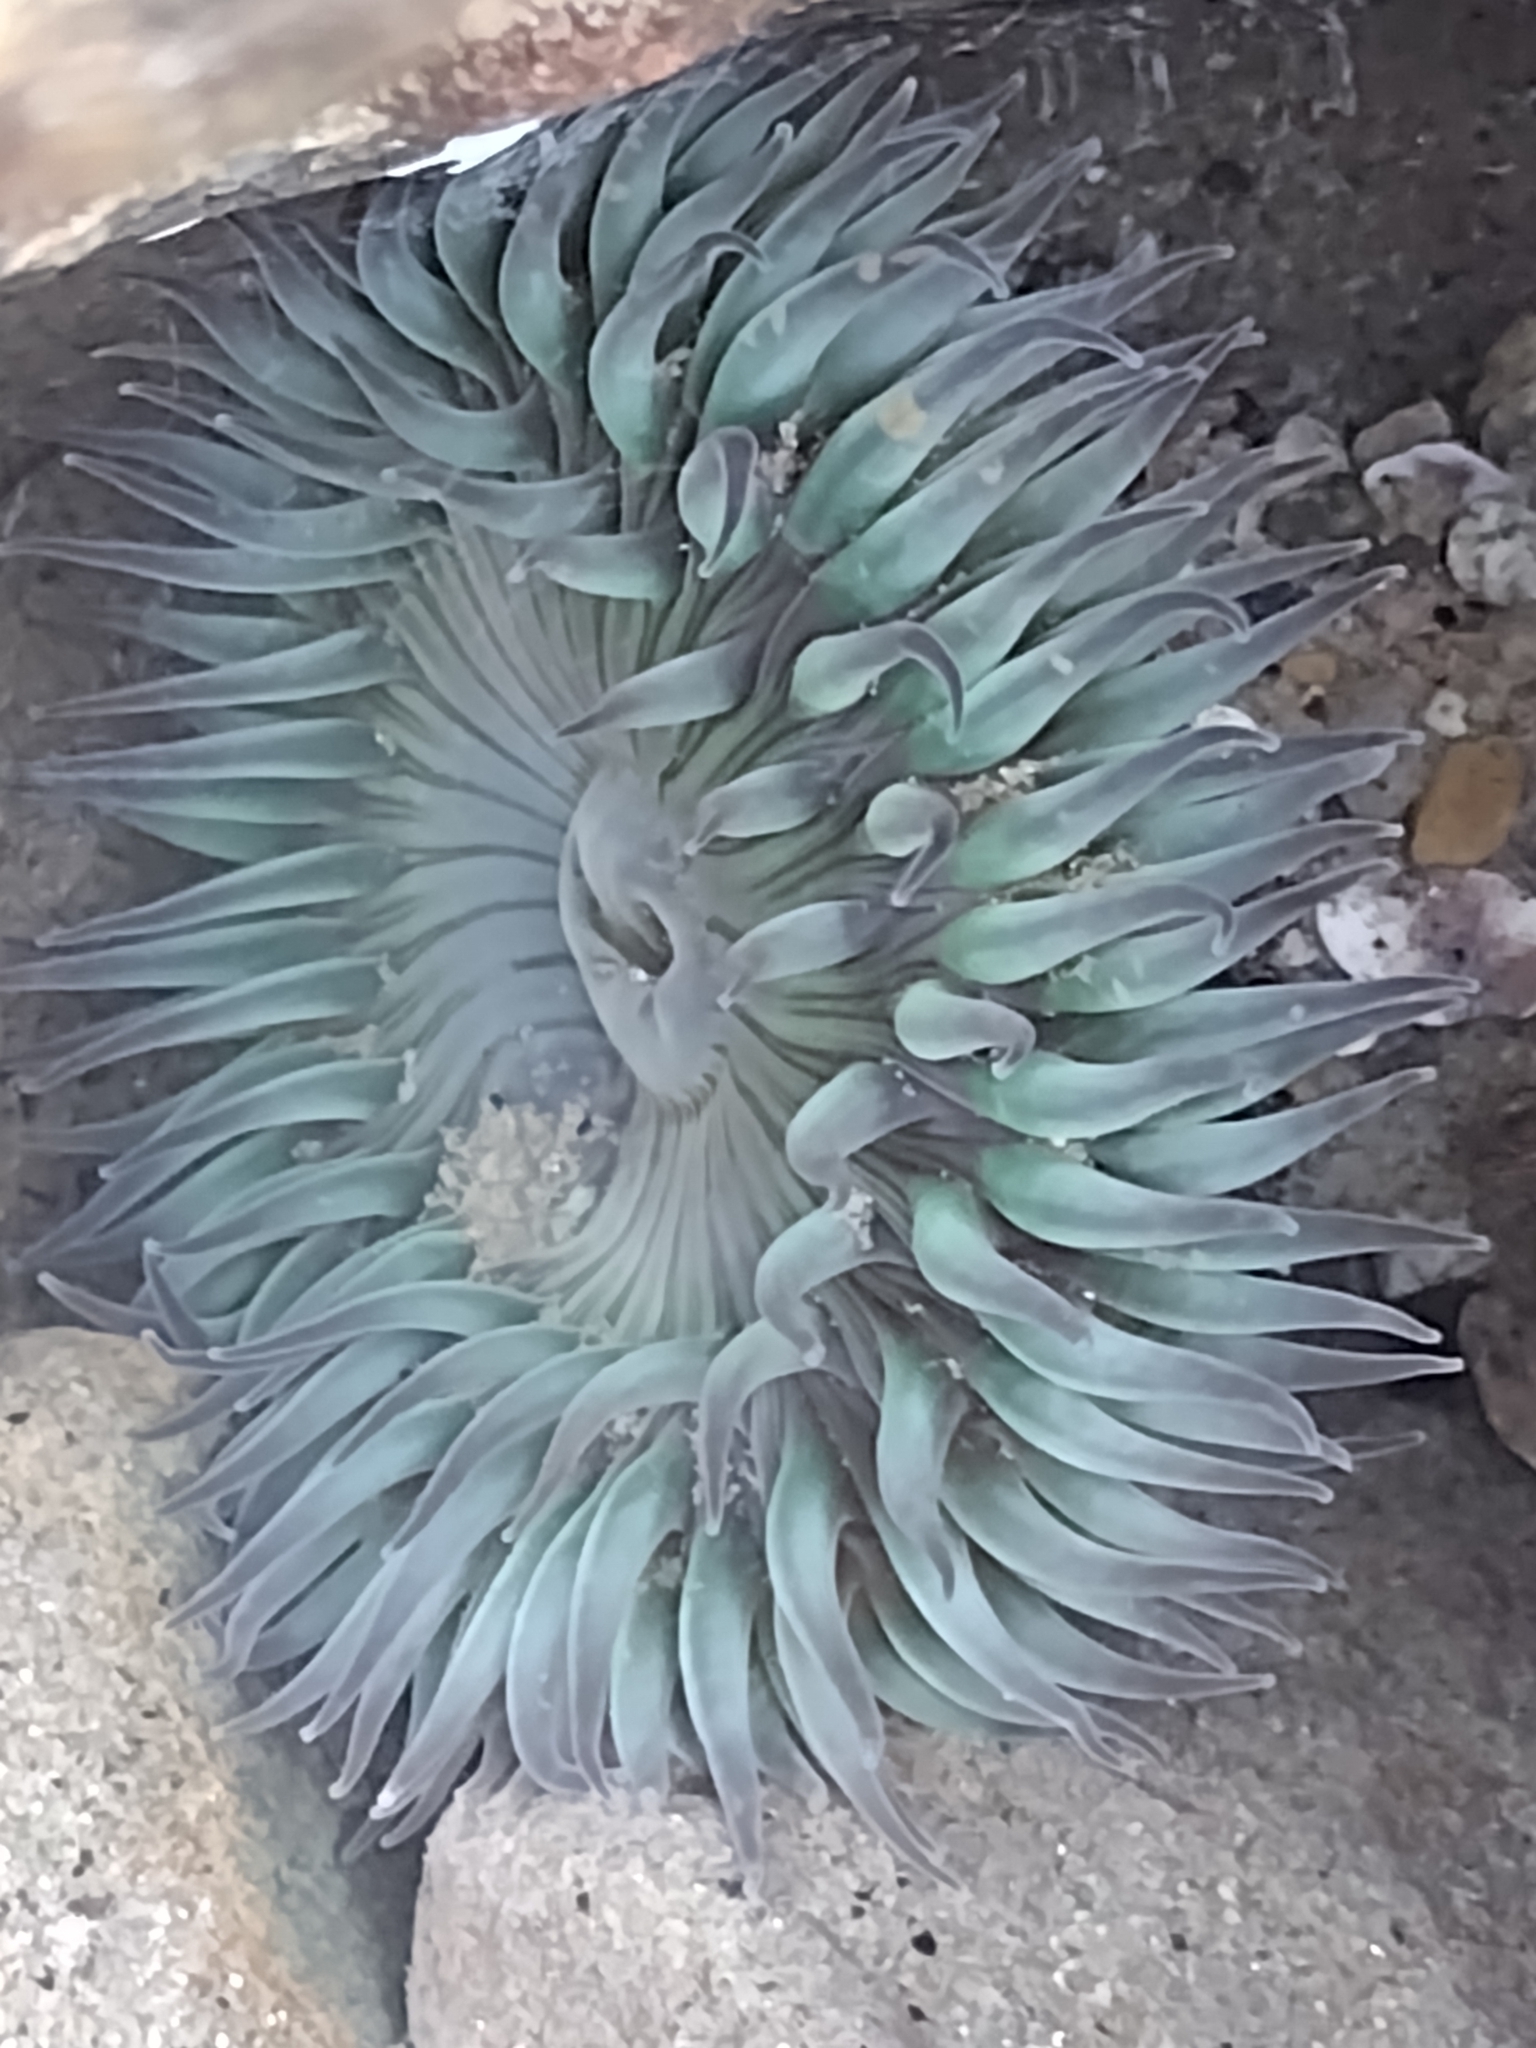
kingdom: Animalia
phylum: Cnidaria
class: Anthozoa
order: Actiniaria
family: Actiniidae
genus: Anthopleura
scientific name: Anthopleura sola
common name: Sun anemone
